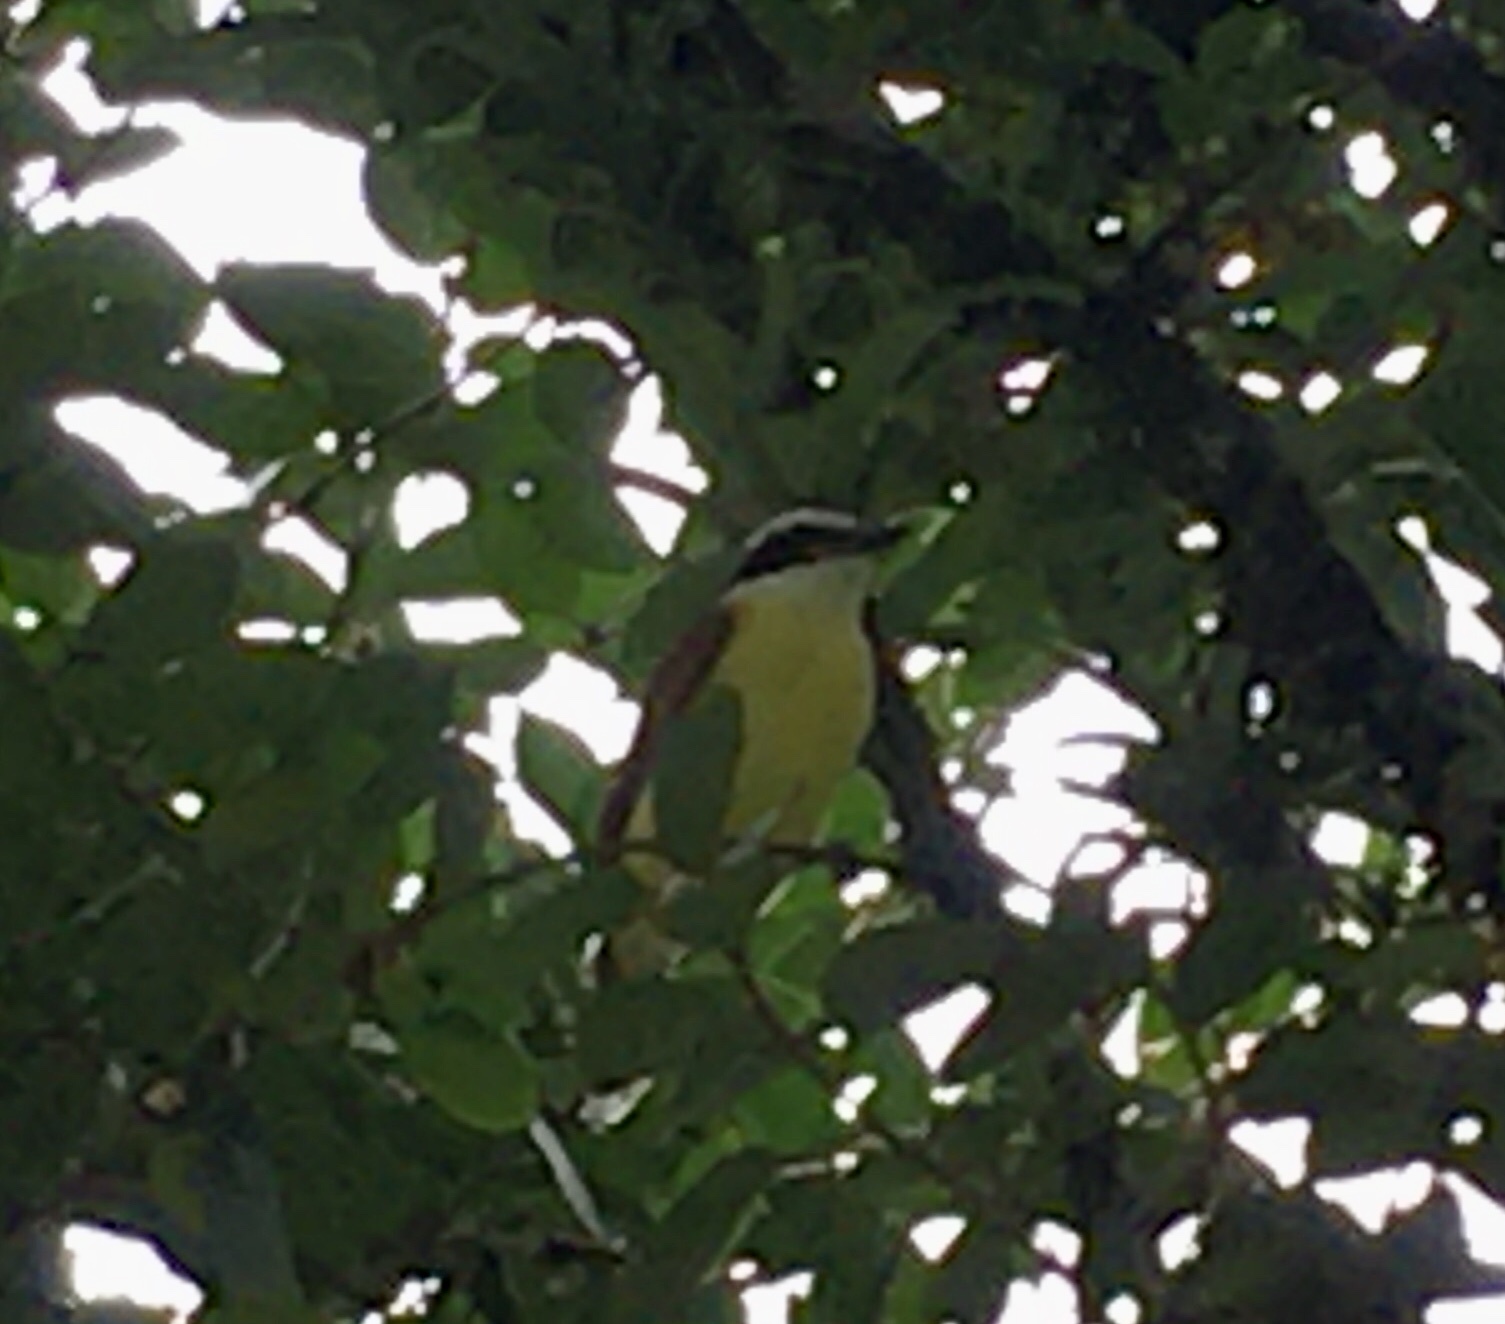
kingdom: Animalia
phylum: Chordata
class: Aves
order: Passeriformes
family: Tyrannidae
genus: Pitangus
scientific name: Pitangus sulphuratus
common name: Great kiskadee
